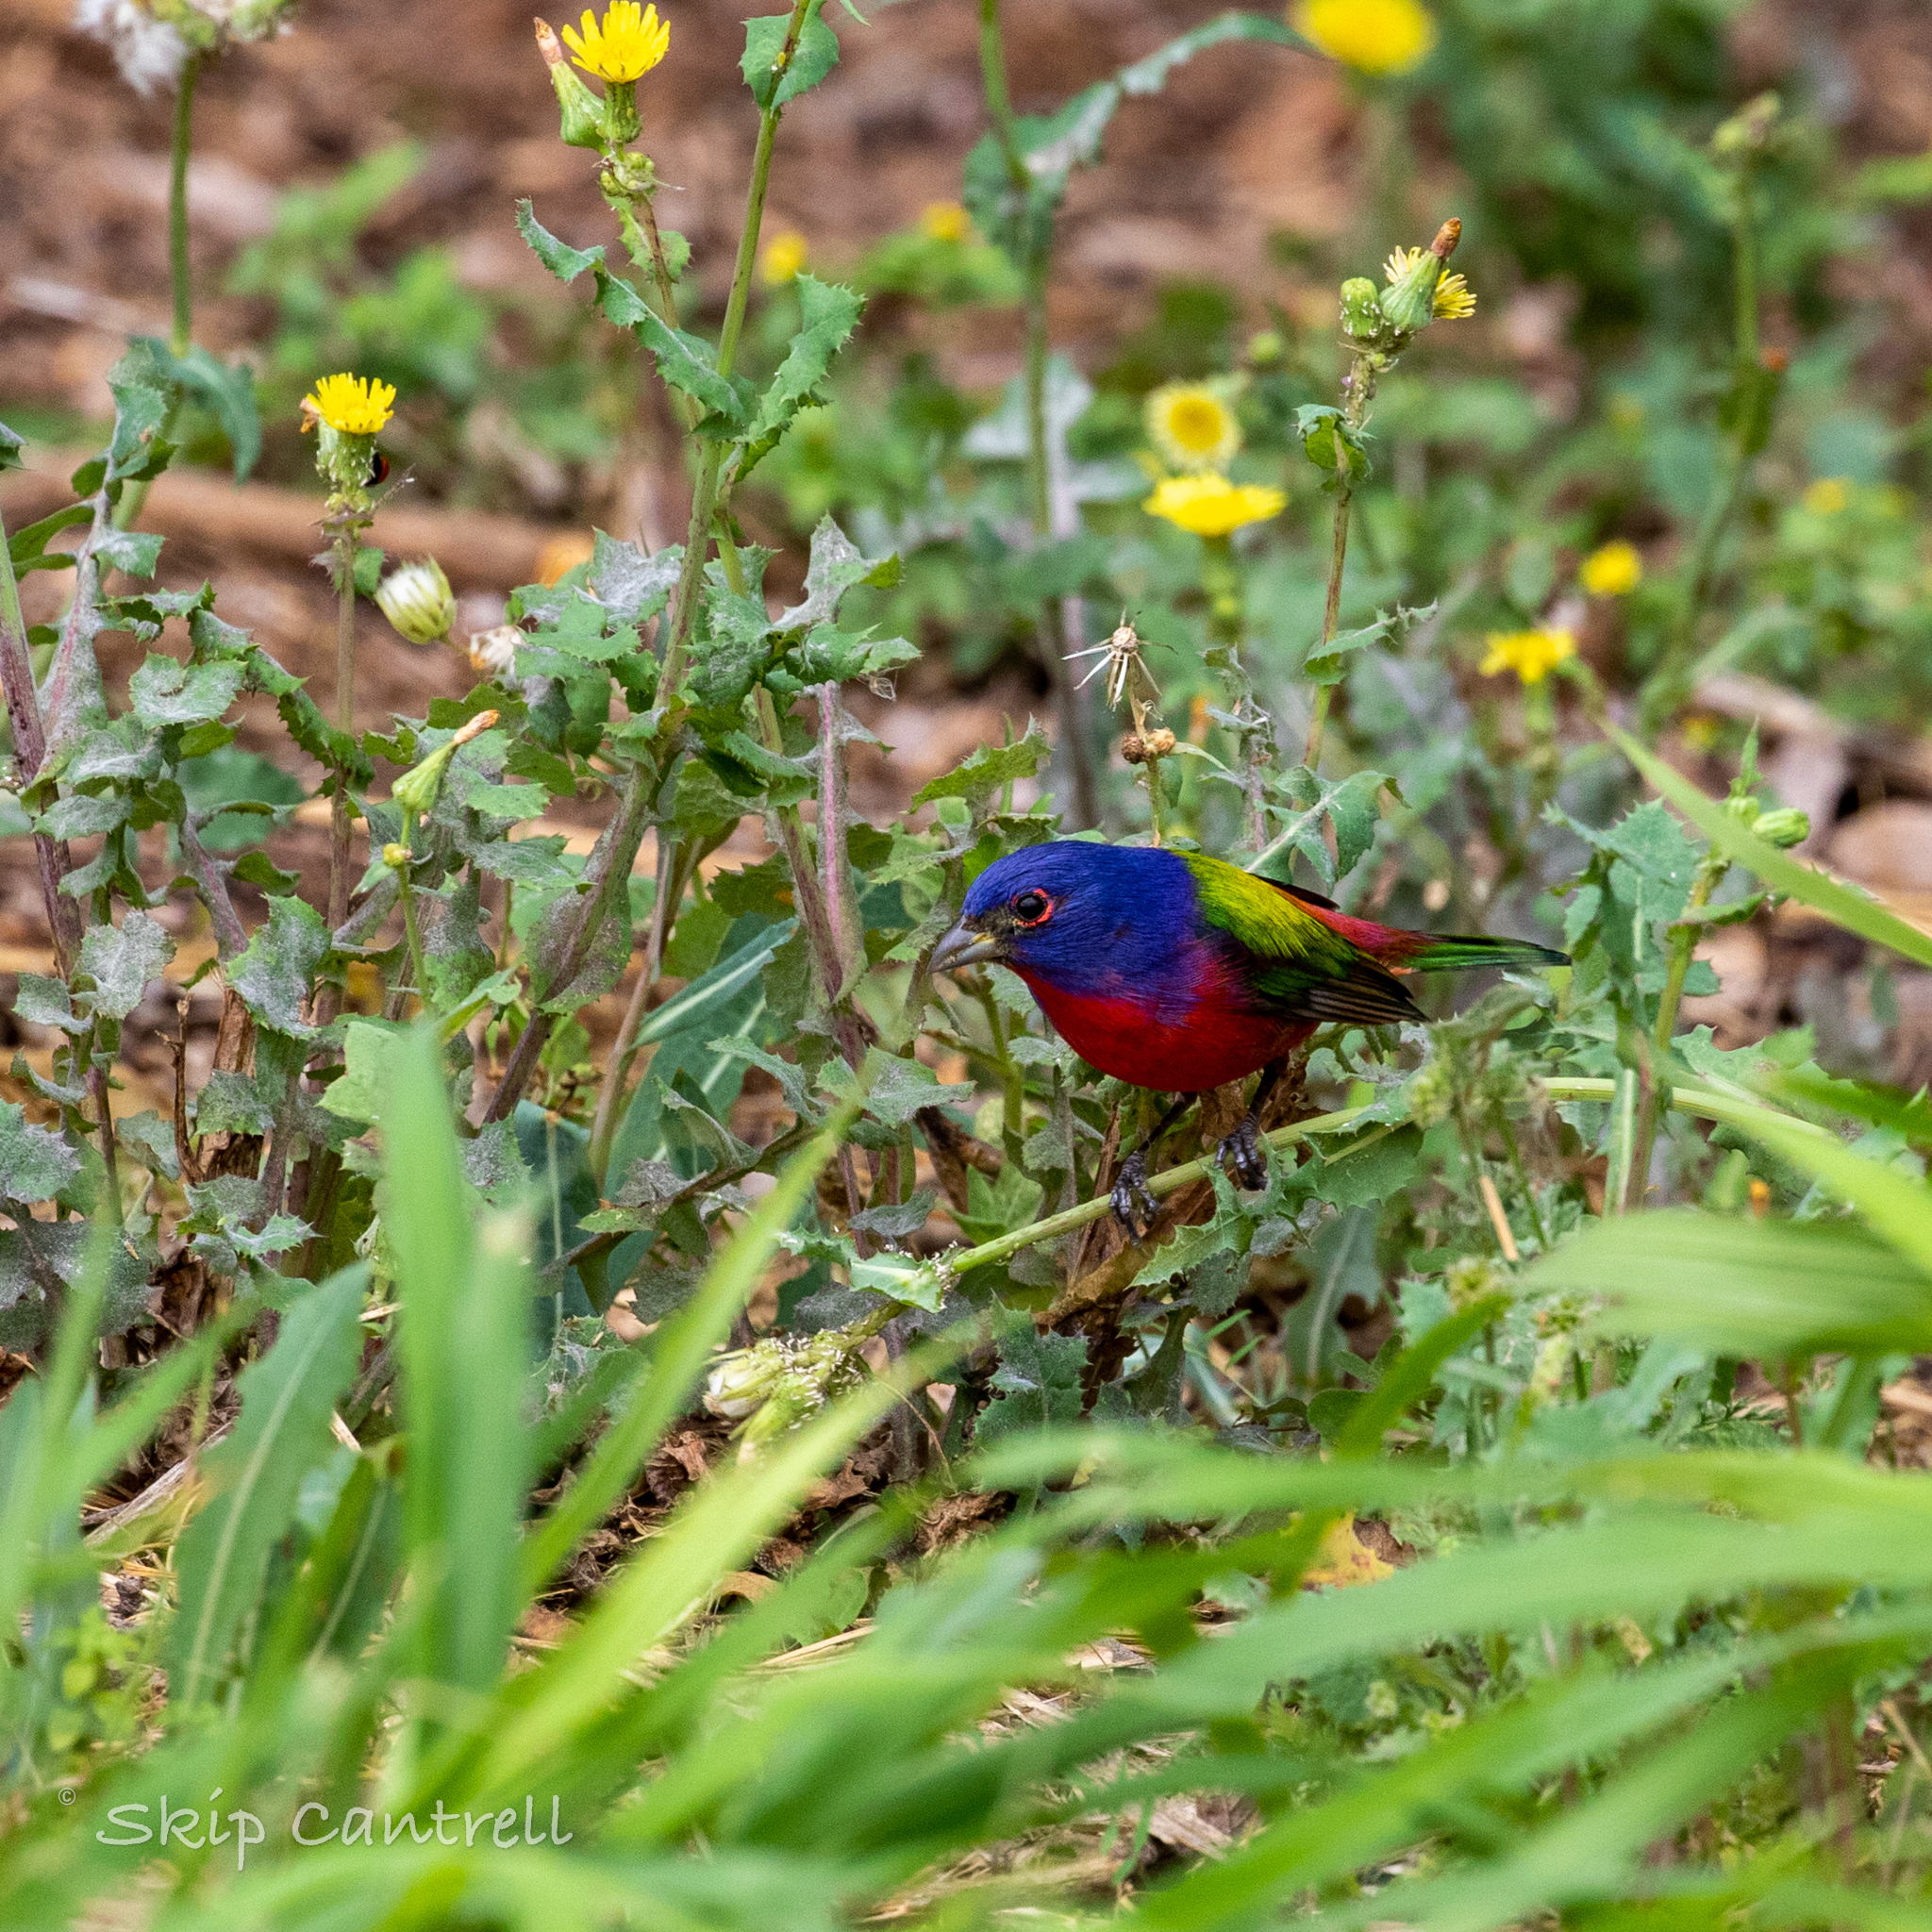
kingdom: Animalia
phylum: Chordata
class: Aves
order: Passeriformes
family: Cardinalidae
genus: Passerina
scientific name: Passerina ciris
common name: Painted bunting
